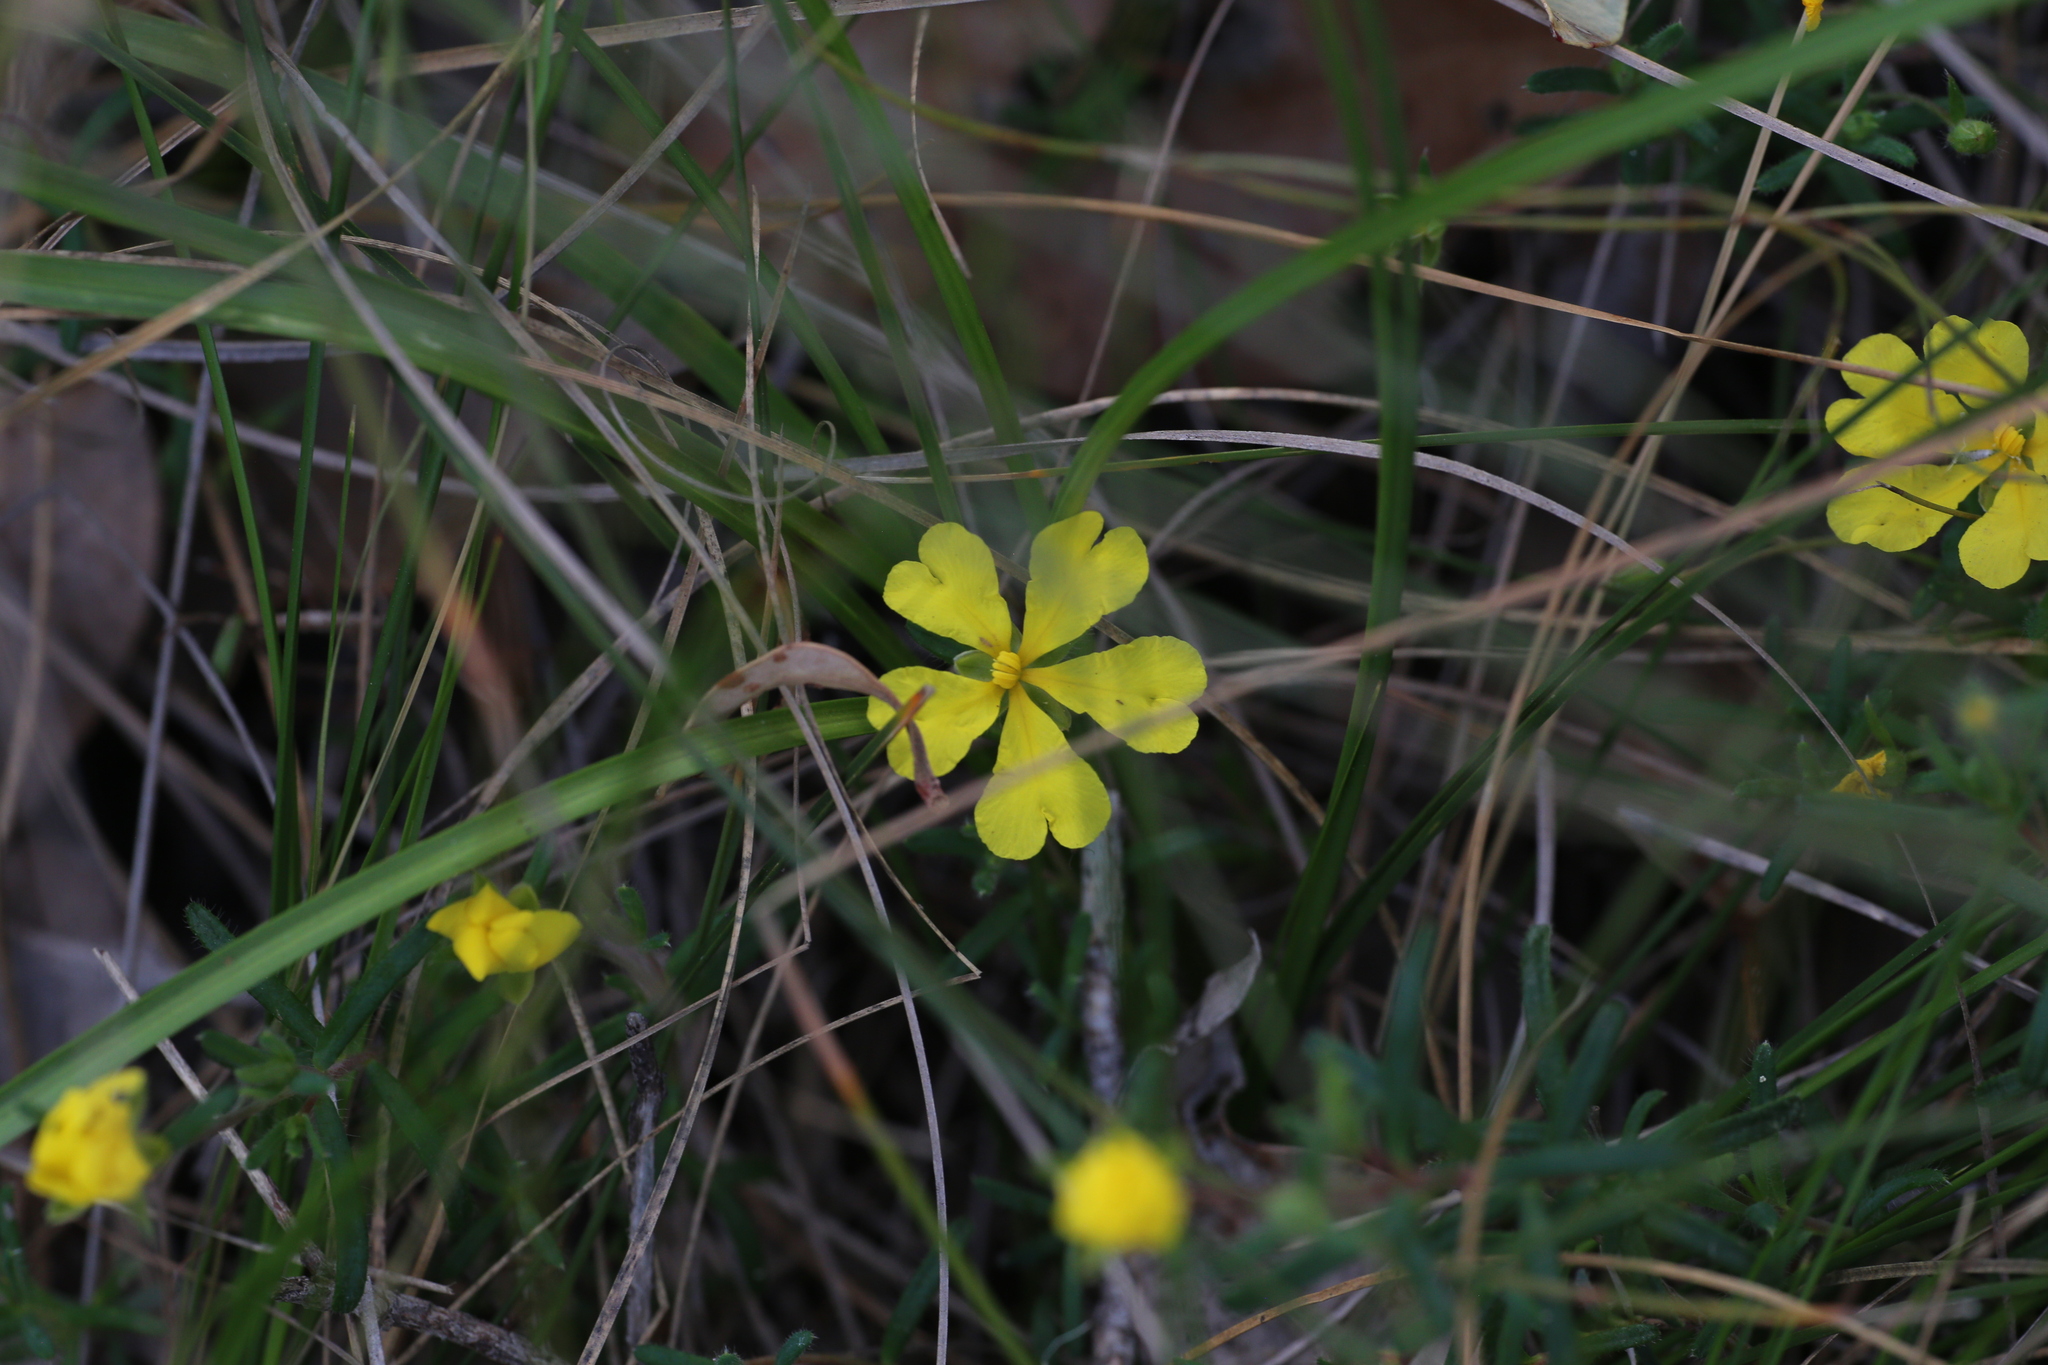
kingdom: Plantae
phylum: Tracheophyta
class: Magnoliopsida
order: Dilleniales
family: Dilleniaceae
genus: Hibbertia
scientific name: Hibbertia diamesogenos
